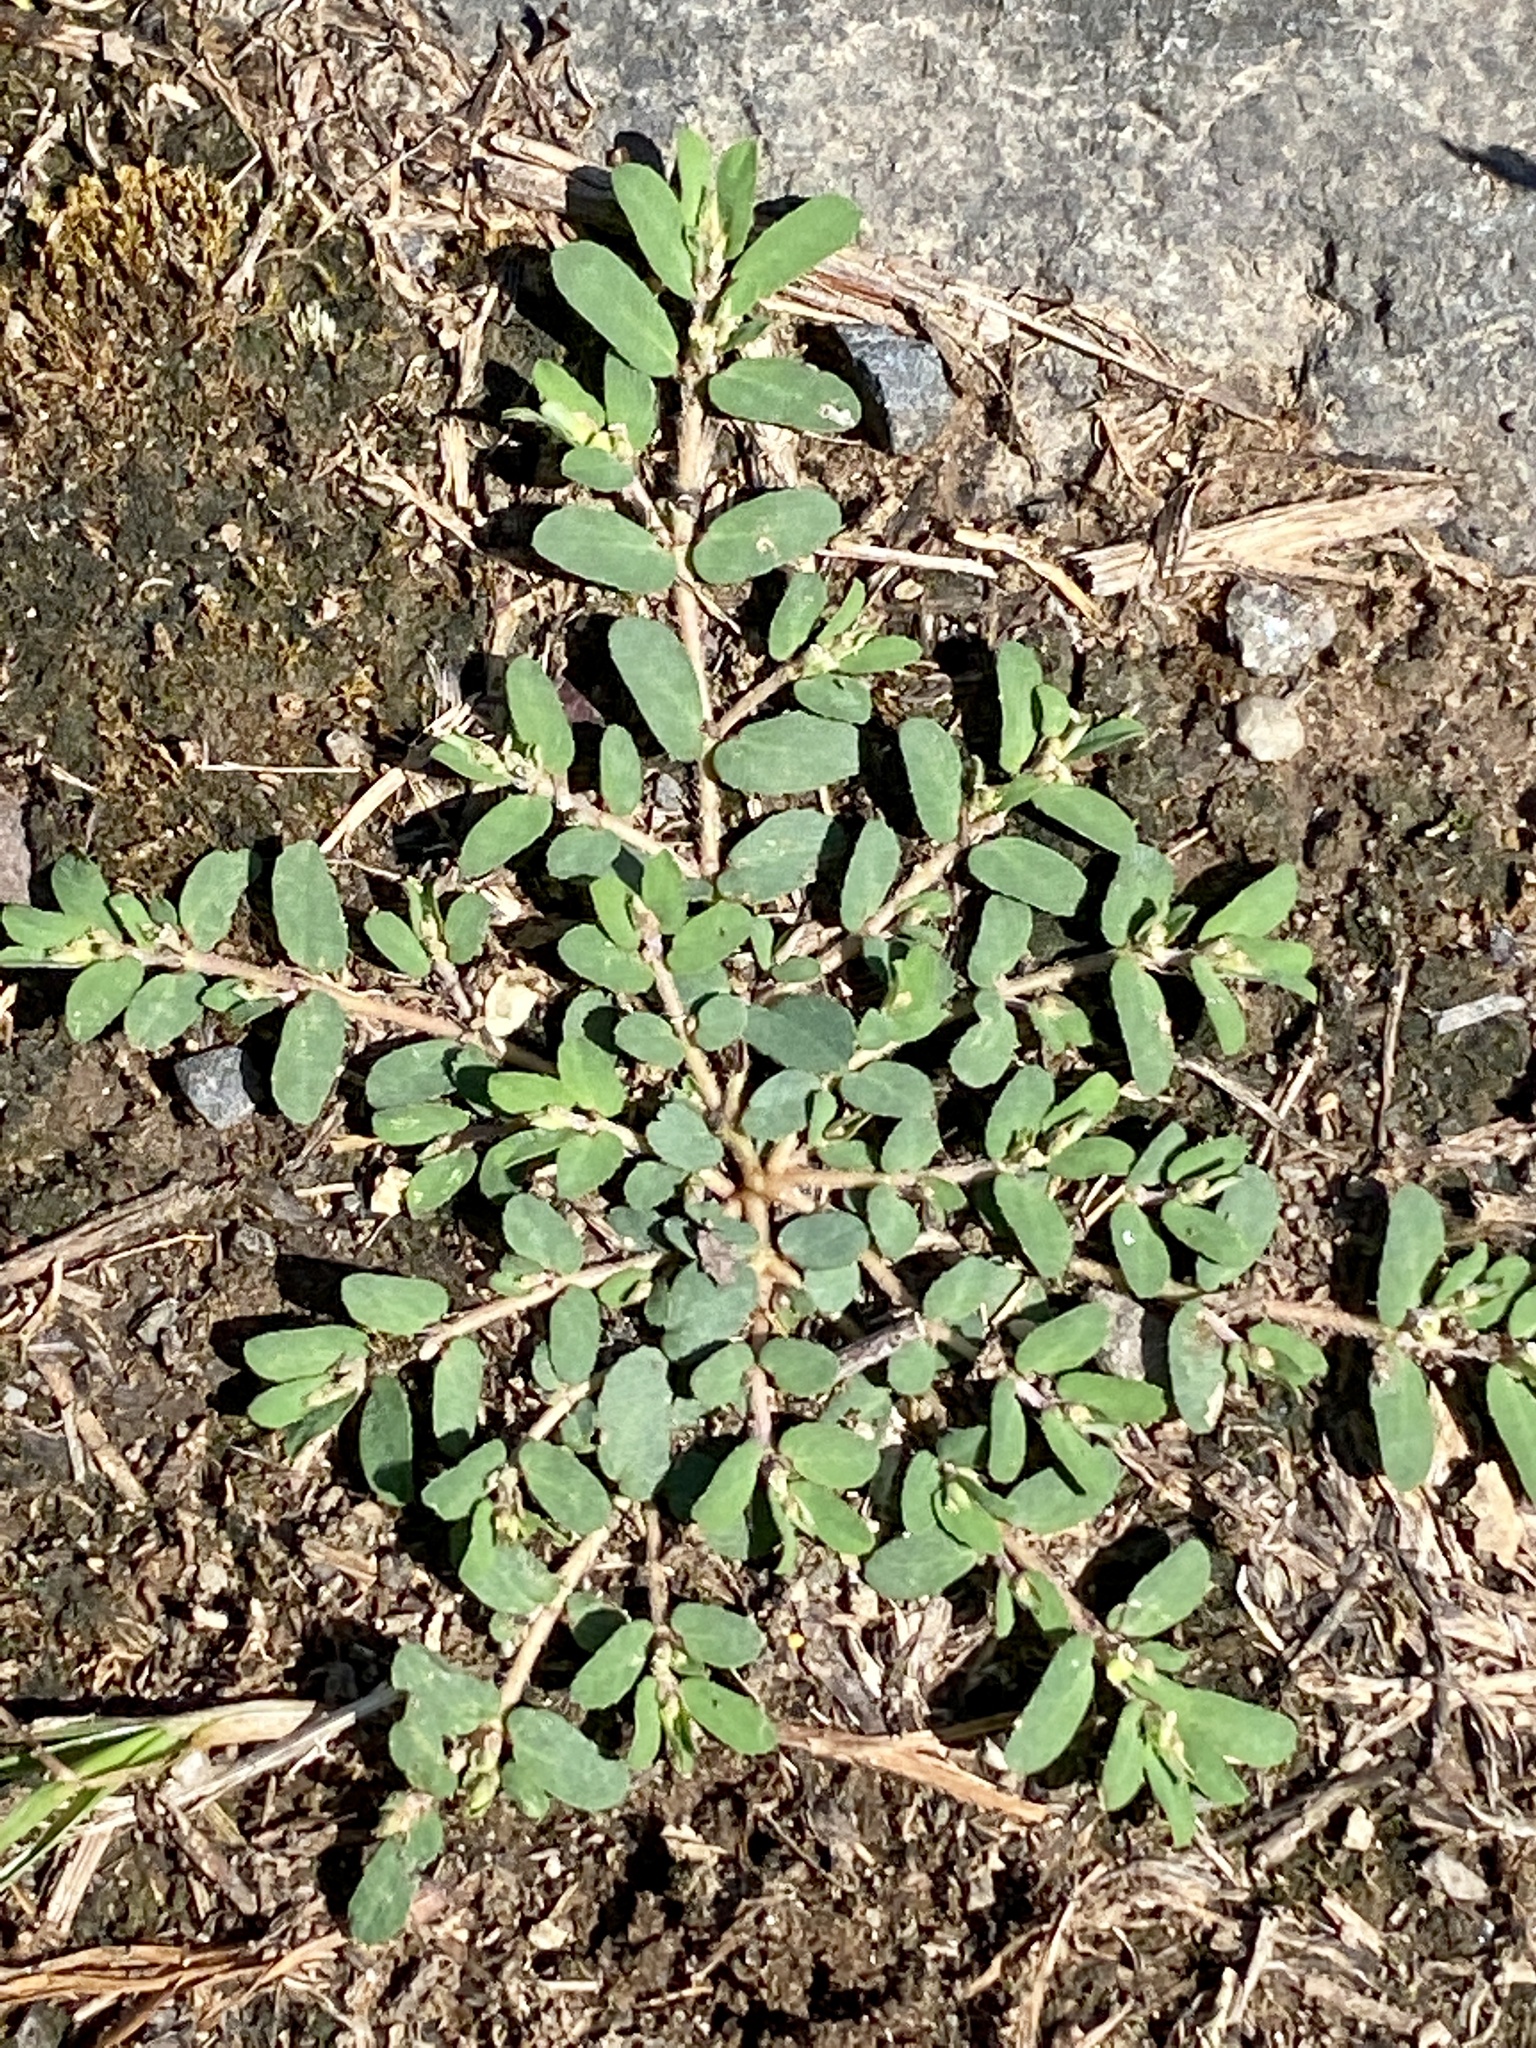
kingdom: Plantae
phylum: Tracheophyta
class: Magnoliopsida
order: Malpighiales
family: Euphorbiaceae
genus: Euphorbia
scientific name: Euphorbia maculata
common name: Spotted spurge
